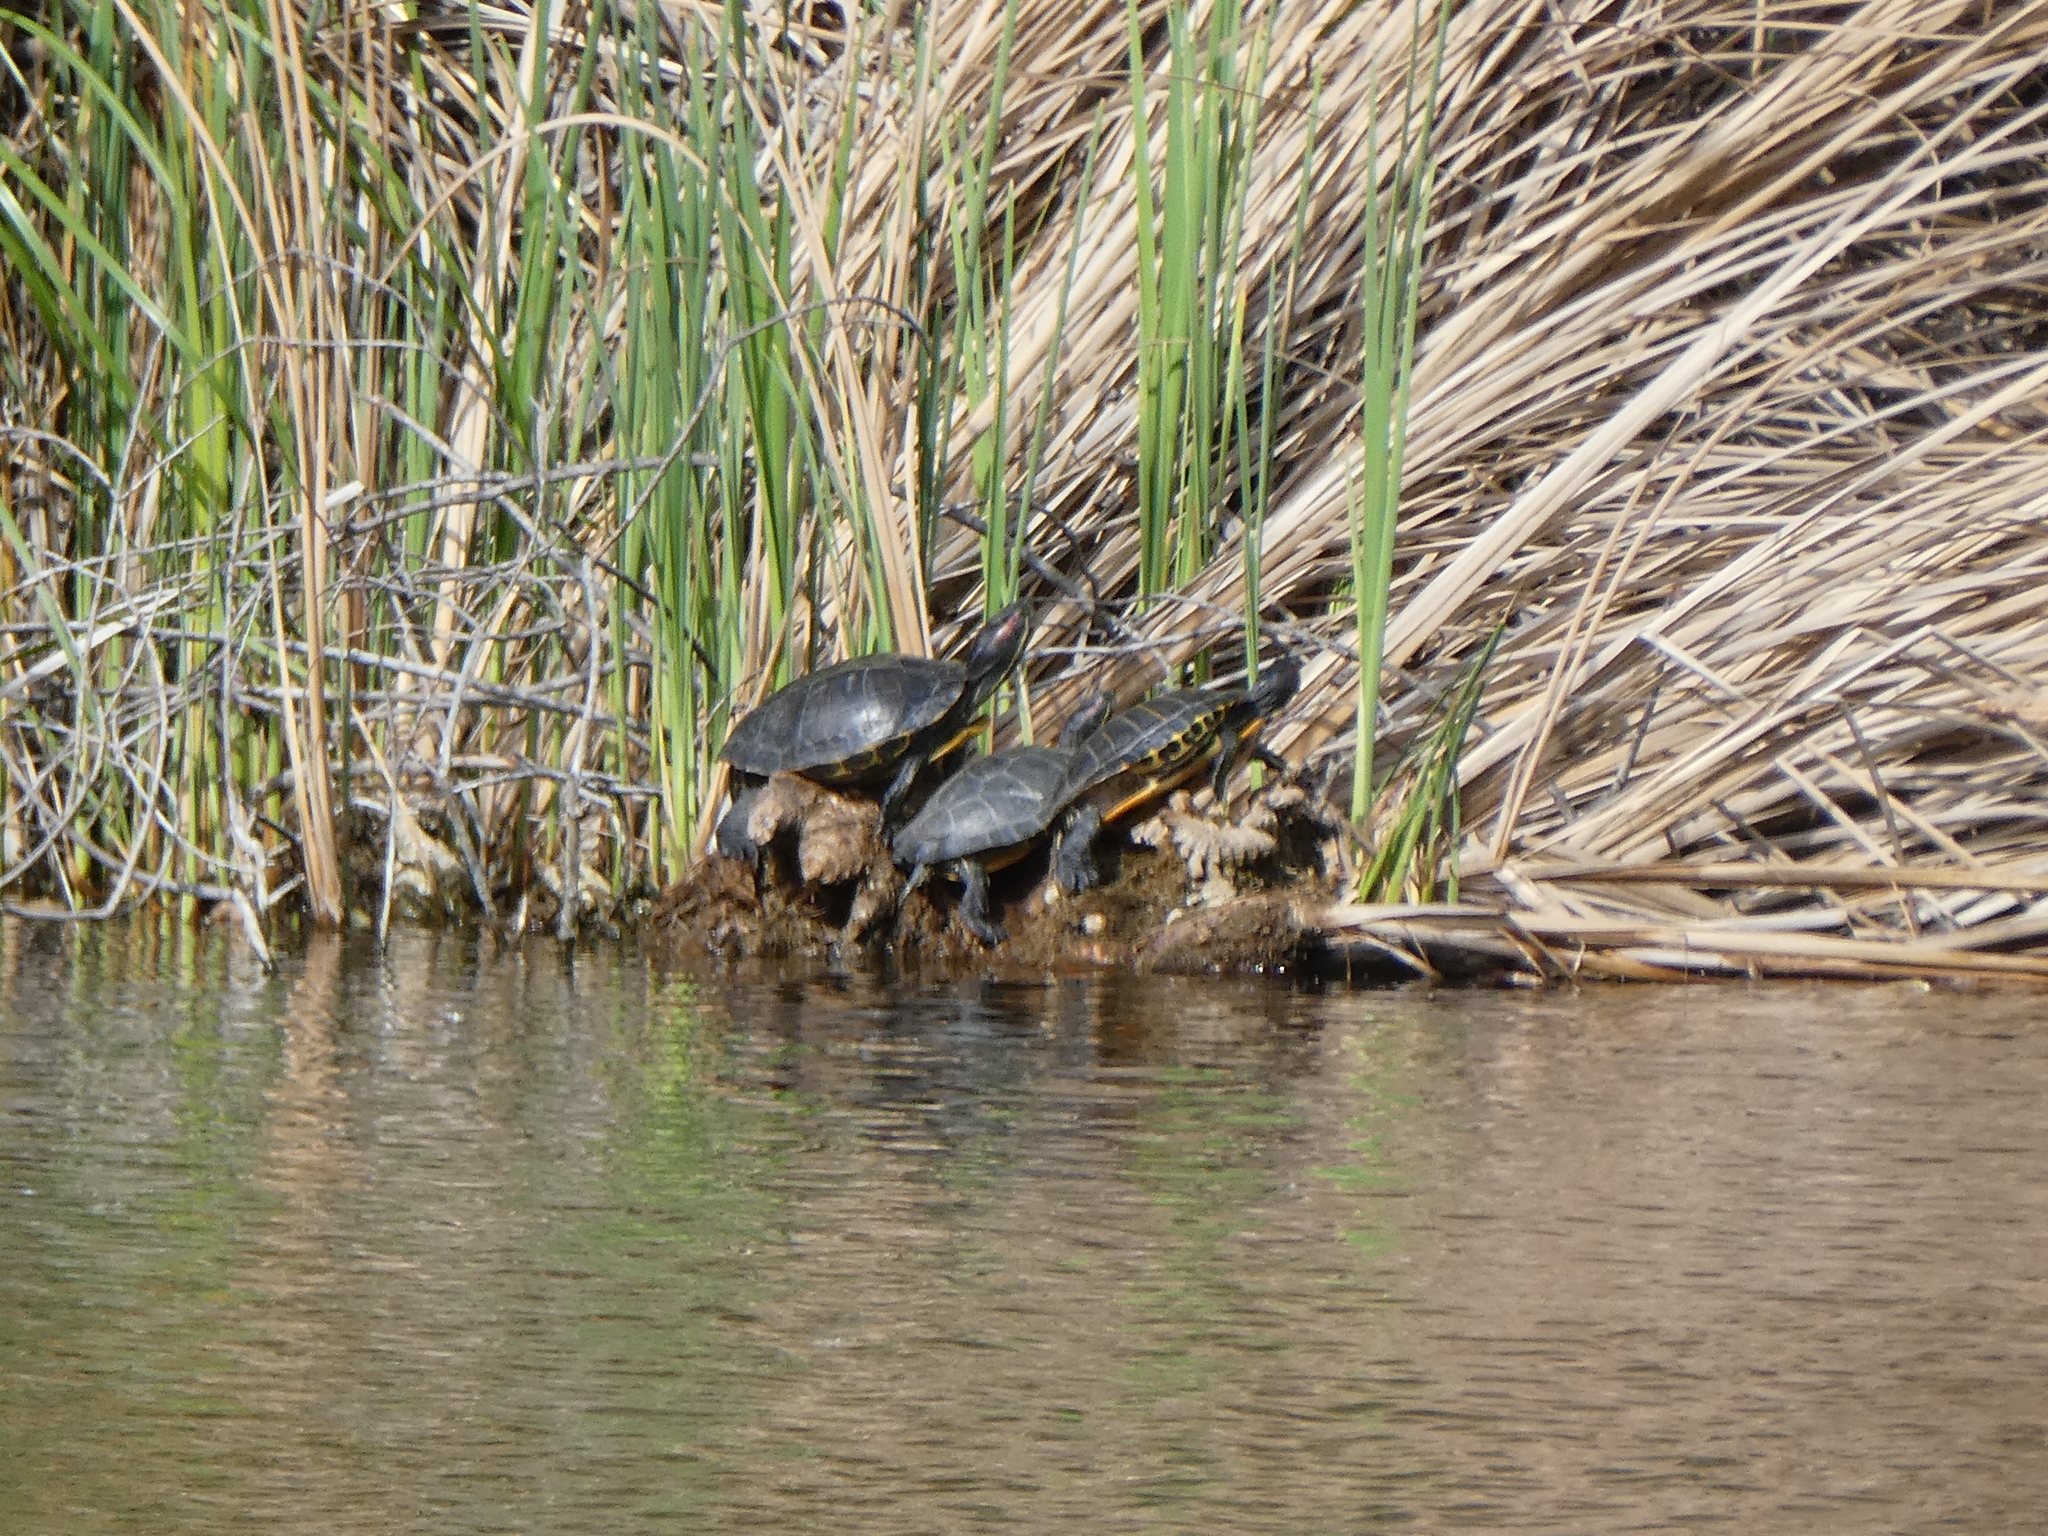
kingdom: Animalia
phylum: Chordata
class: Testudines
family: Emydidae
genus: Trachemys
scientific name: Trachemys scripta
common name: Slider
